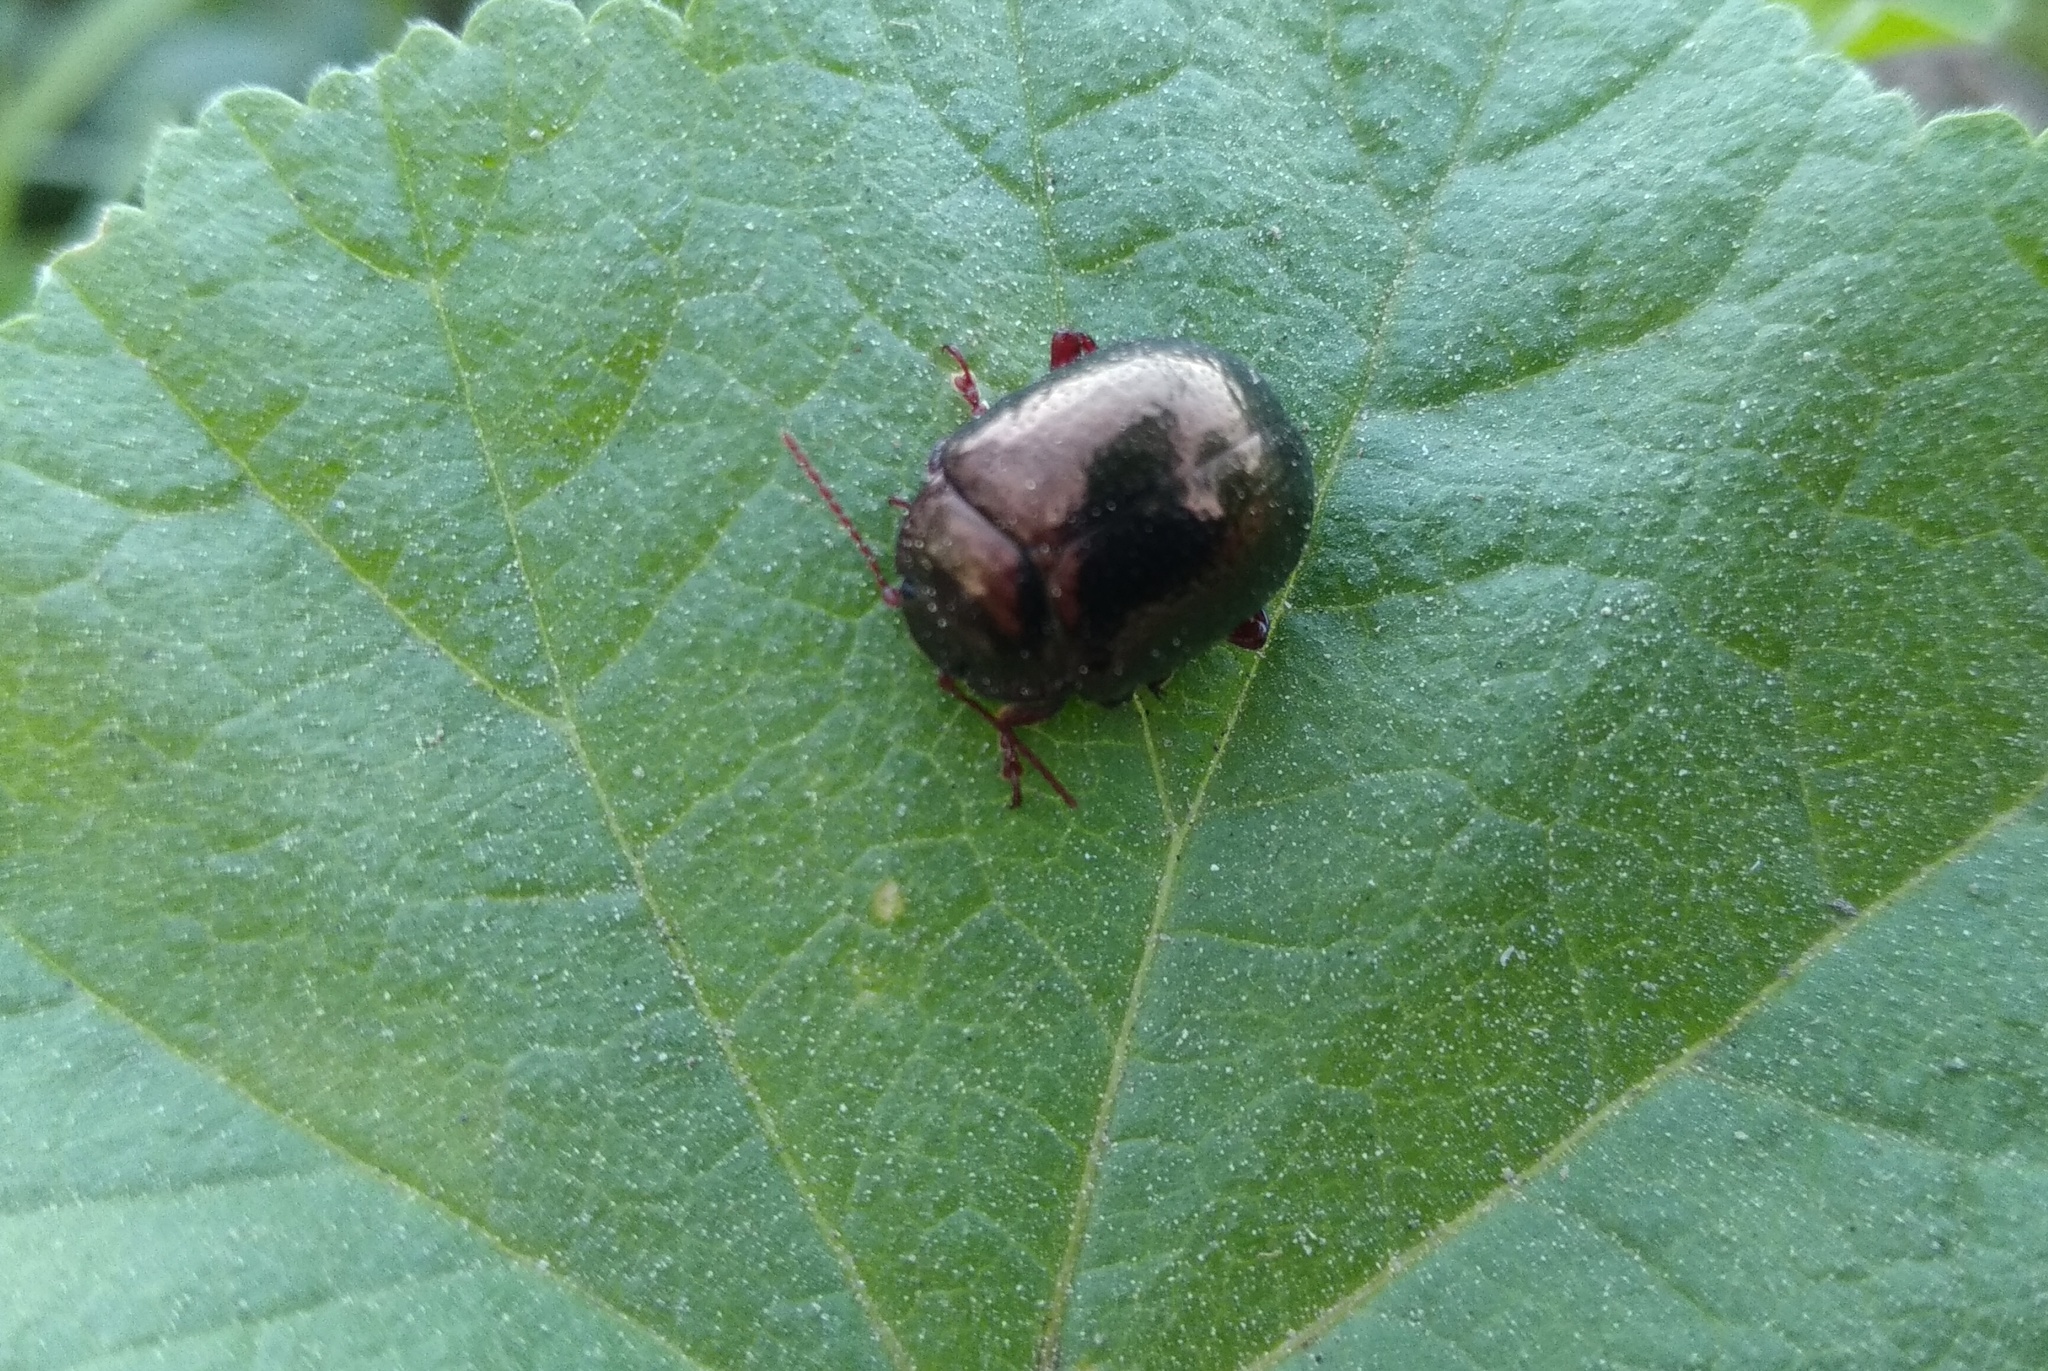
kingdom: Animalia
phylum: Arthropoda
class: Insecta
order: Coleoptera
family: Chrysomelidae
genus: Chrysolina
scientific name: Chrysolina bankii
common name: Leaf beetle
